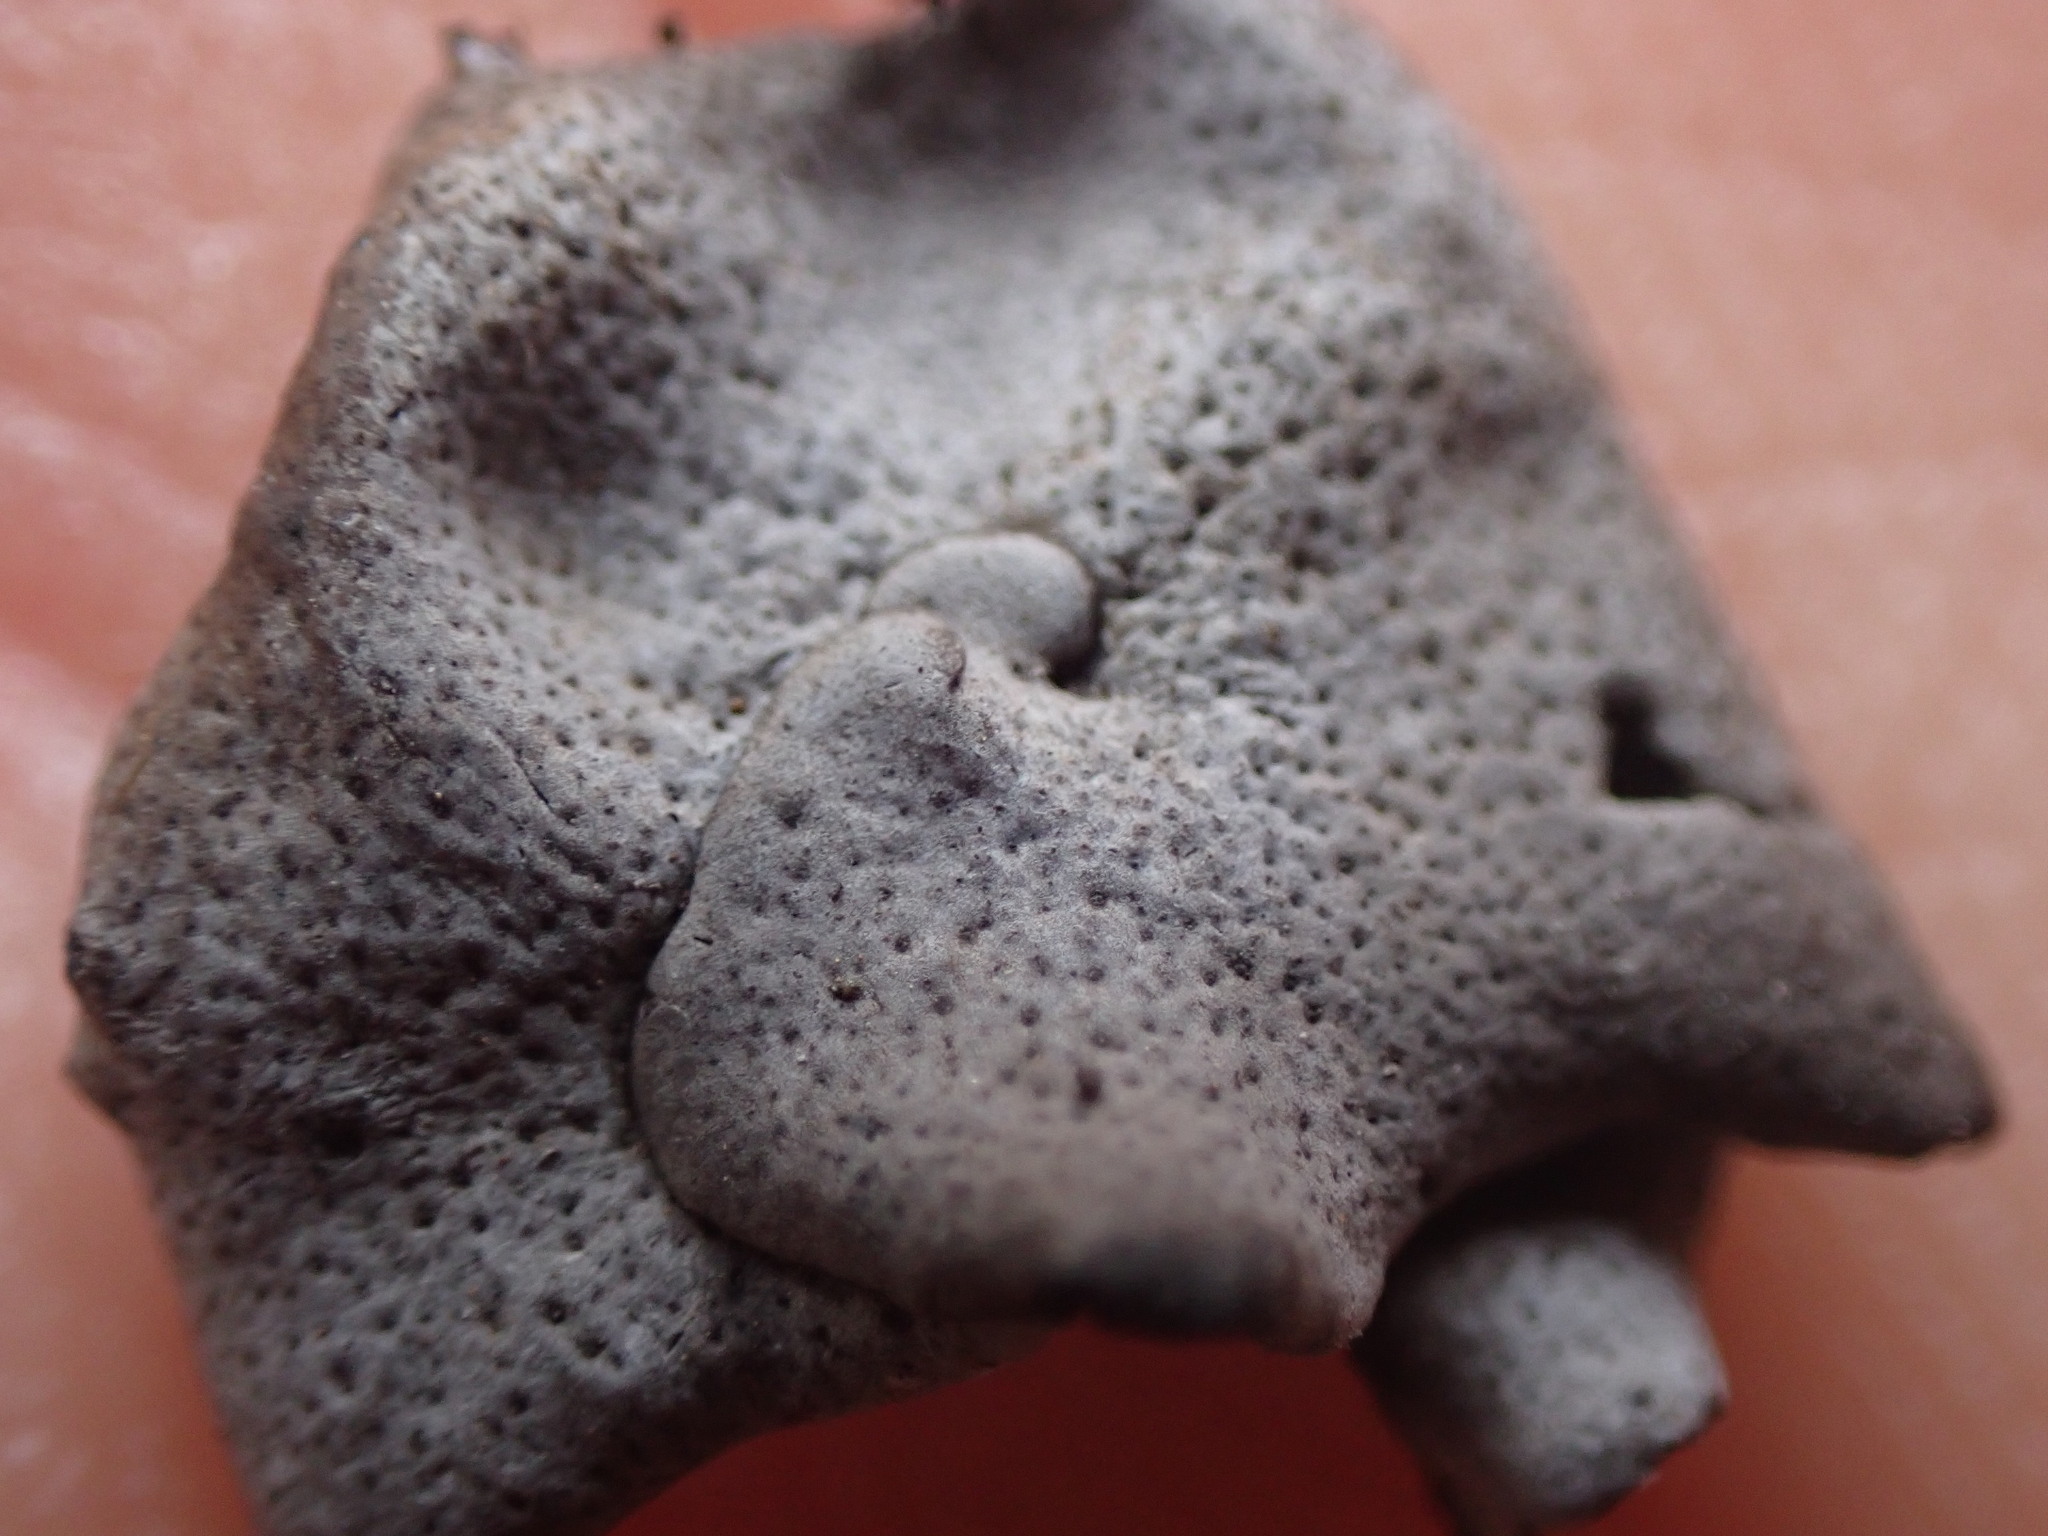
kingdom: Fungi
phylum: Ascomycota
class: Eurotiomycetes
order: Verrucariales
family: Verrucariaceae
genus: Dermatocarpon
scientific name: Dermatocarpon miniatum
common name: Leather lichen
